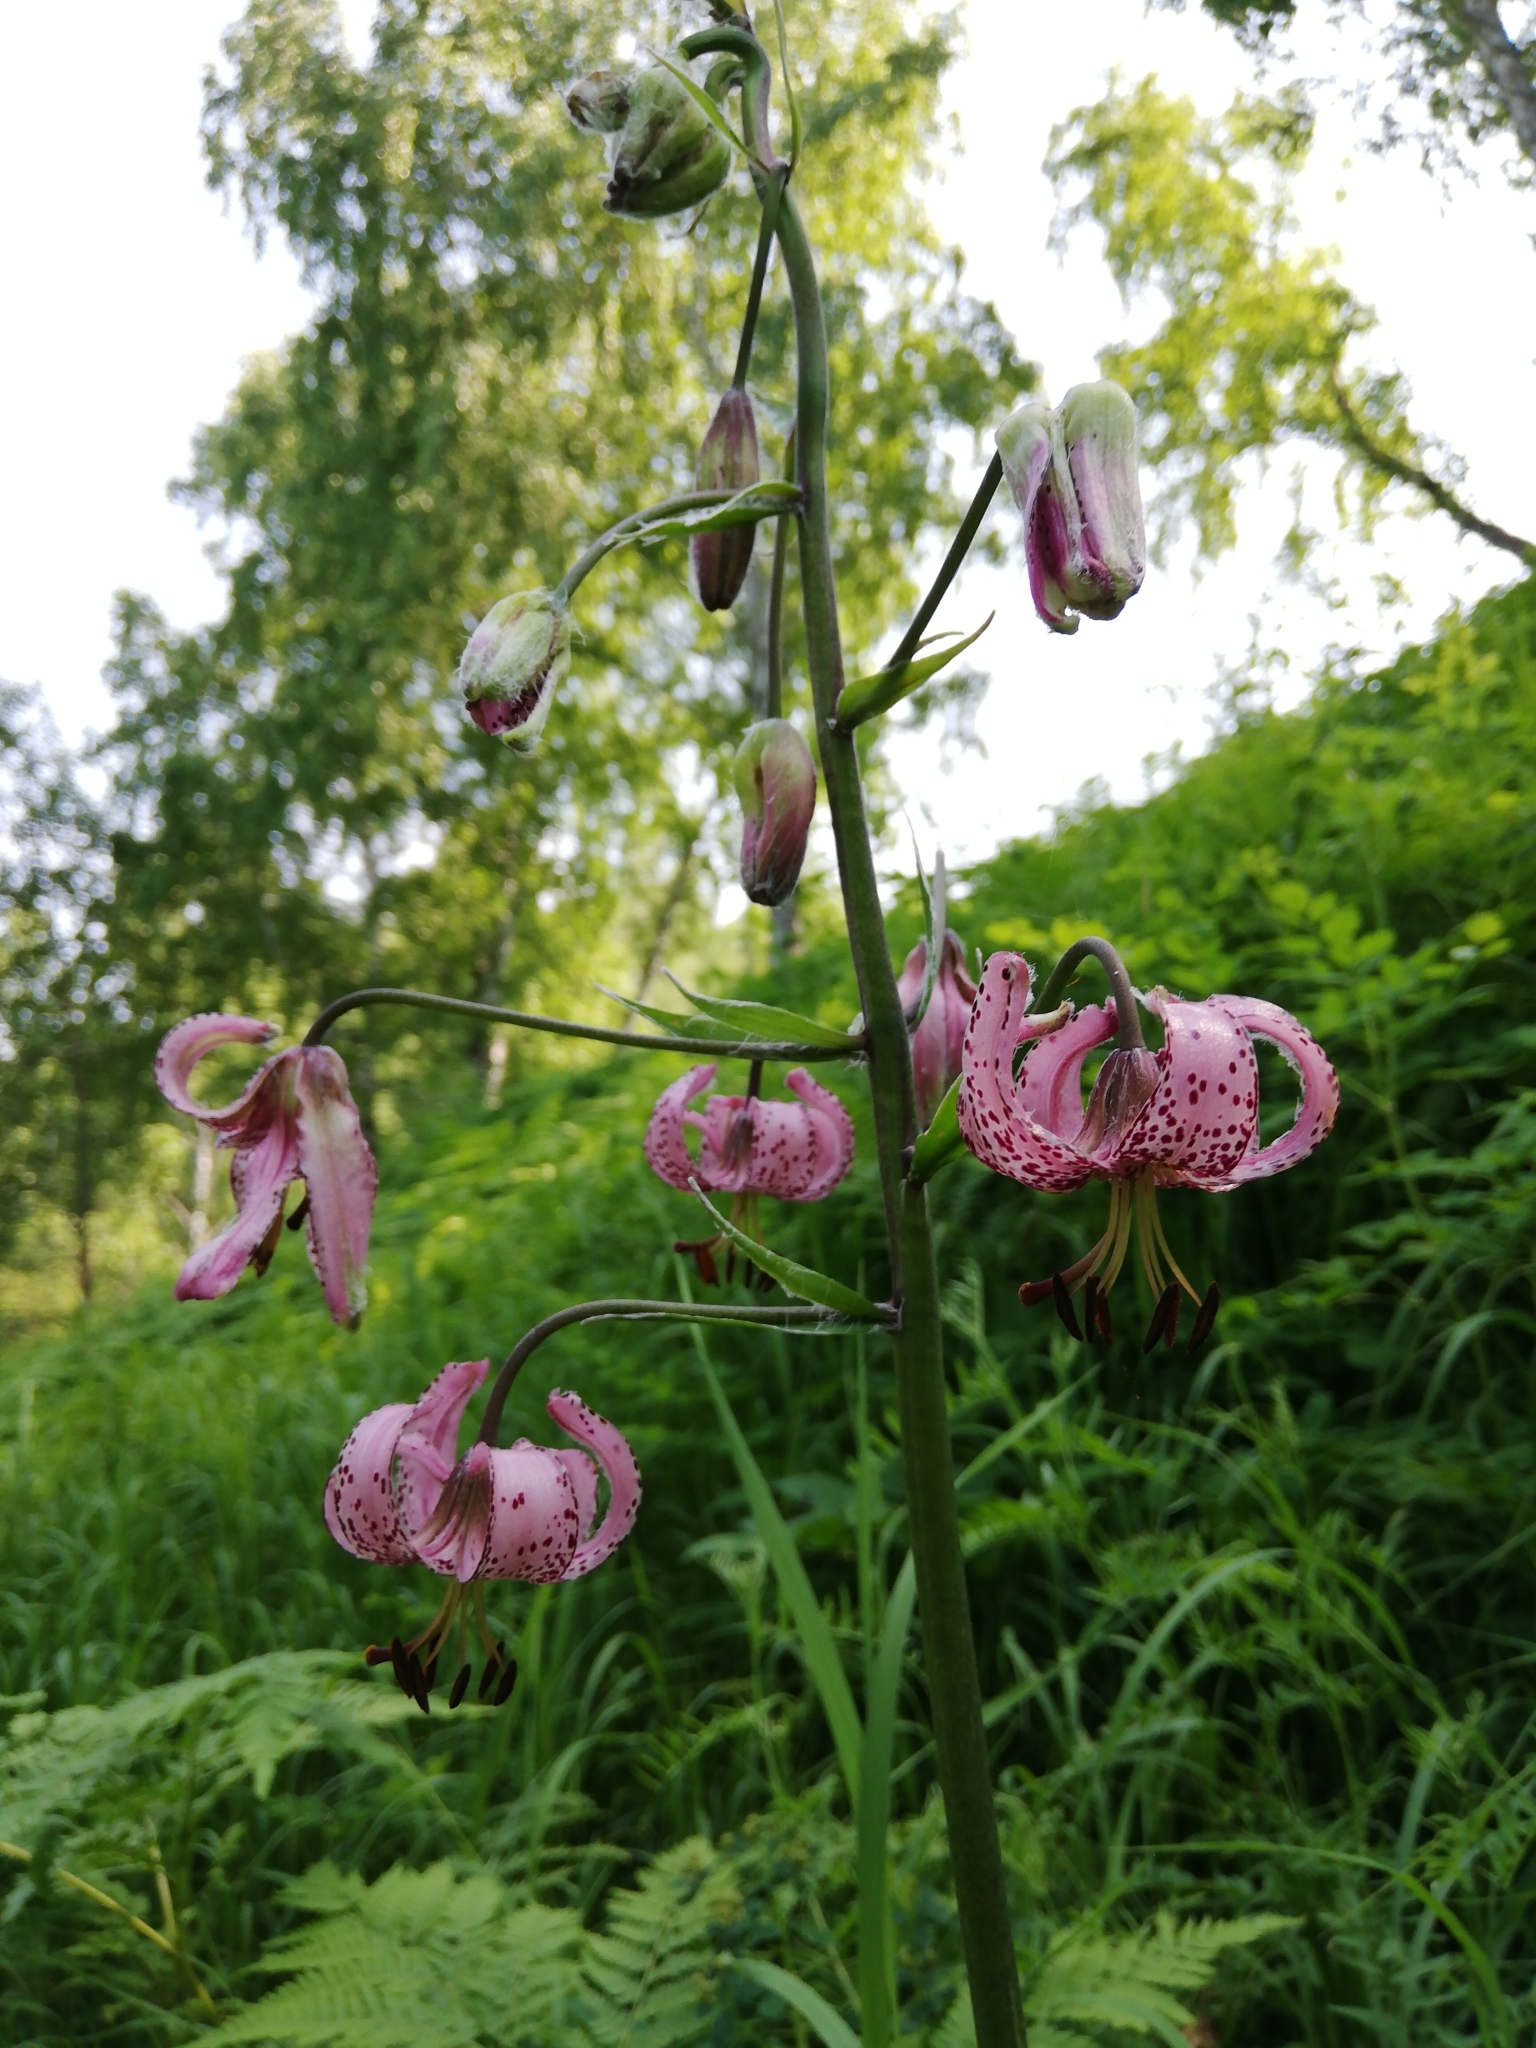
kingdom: Plantae
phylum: Tracheophyta
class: Liliopsida
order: Liliales
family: Liliaceae
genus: Lilium
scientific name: Lilium martagon
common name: Martagon lily
